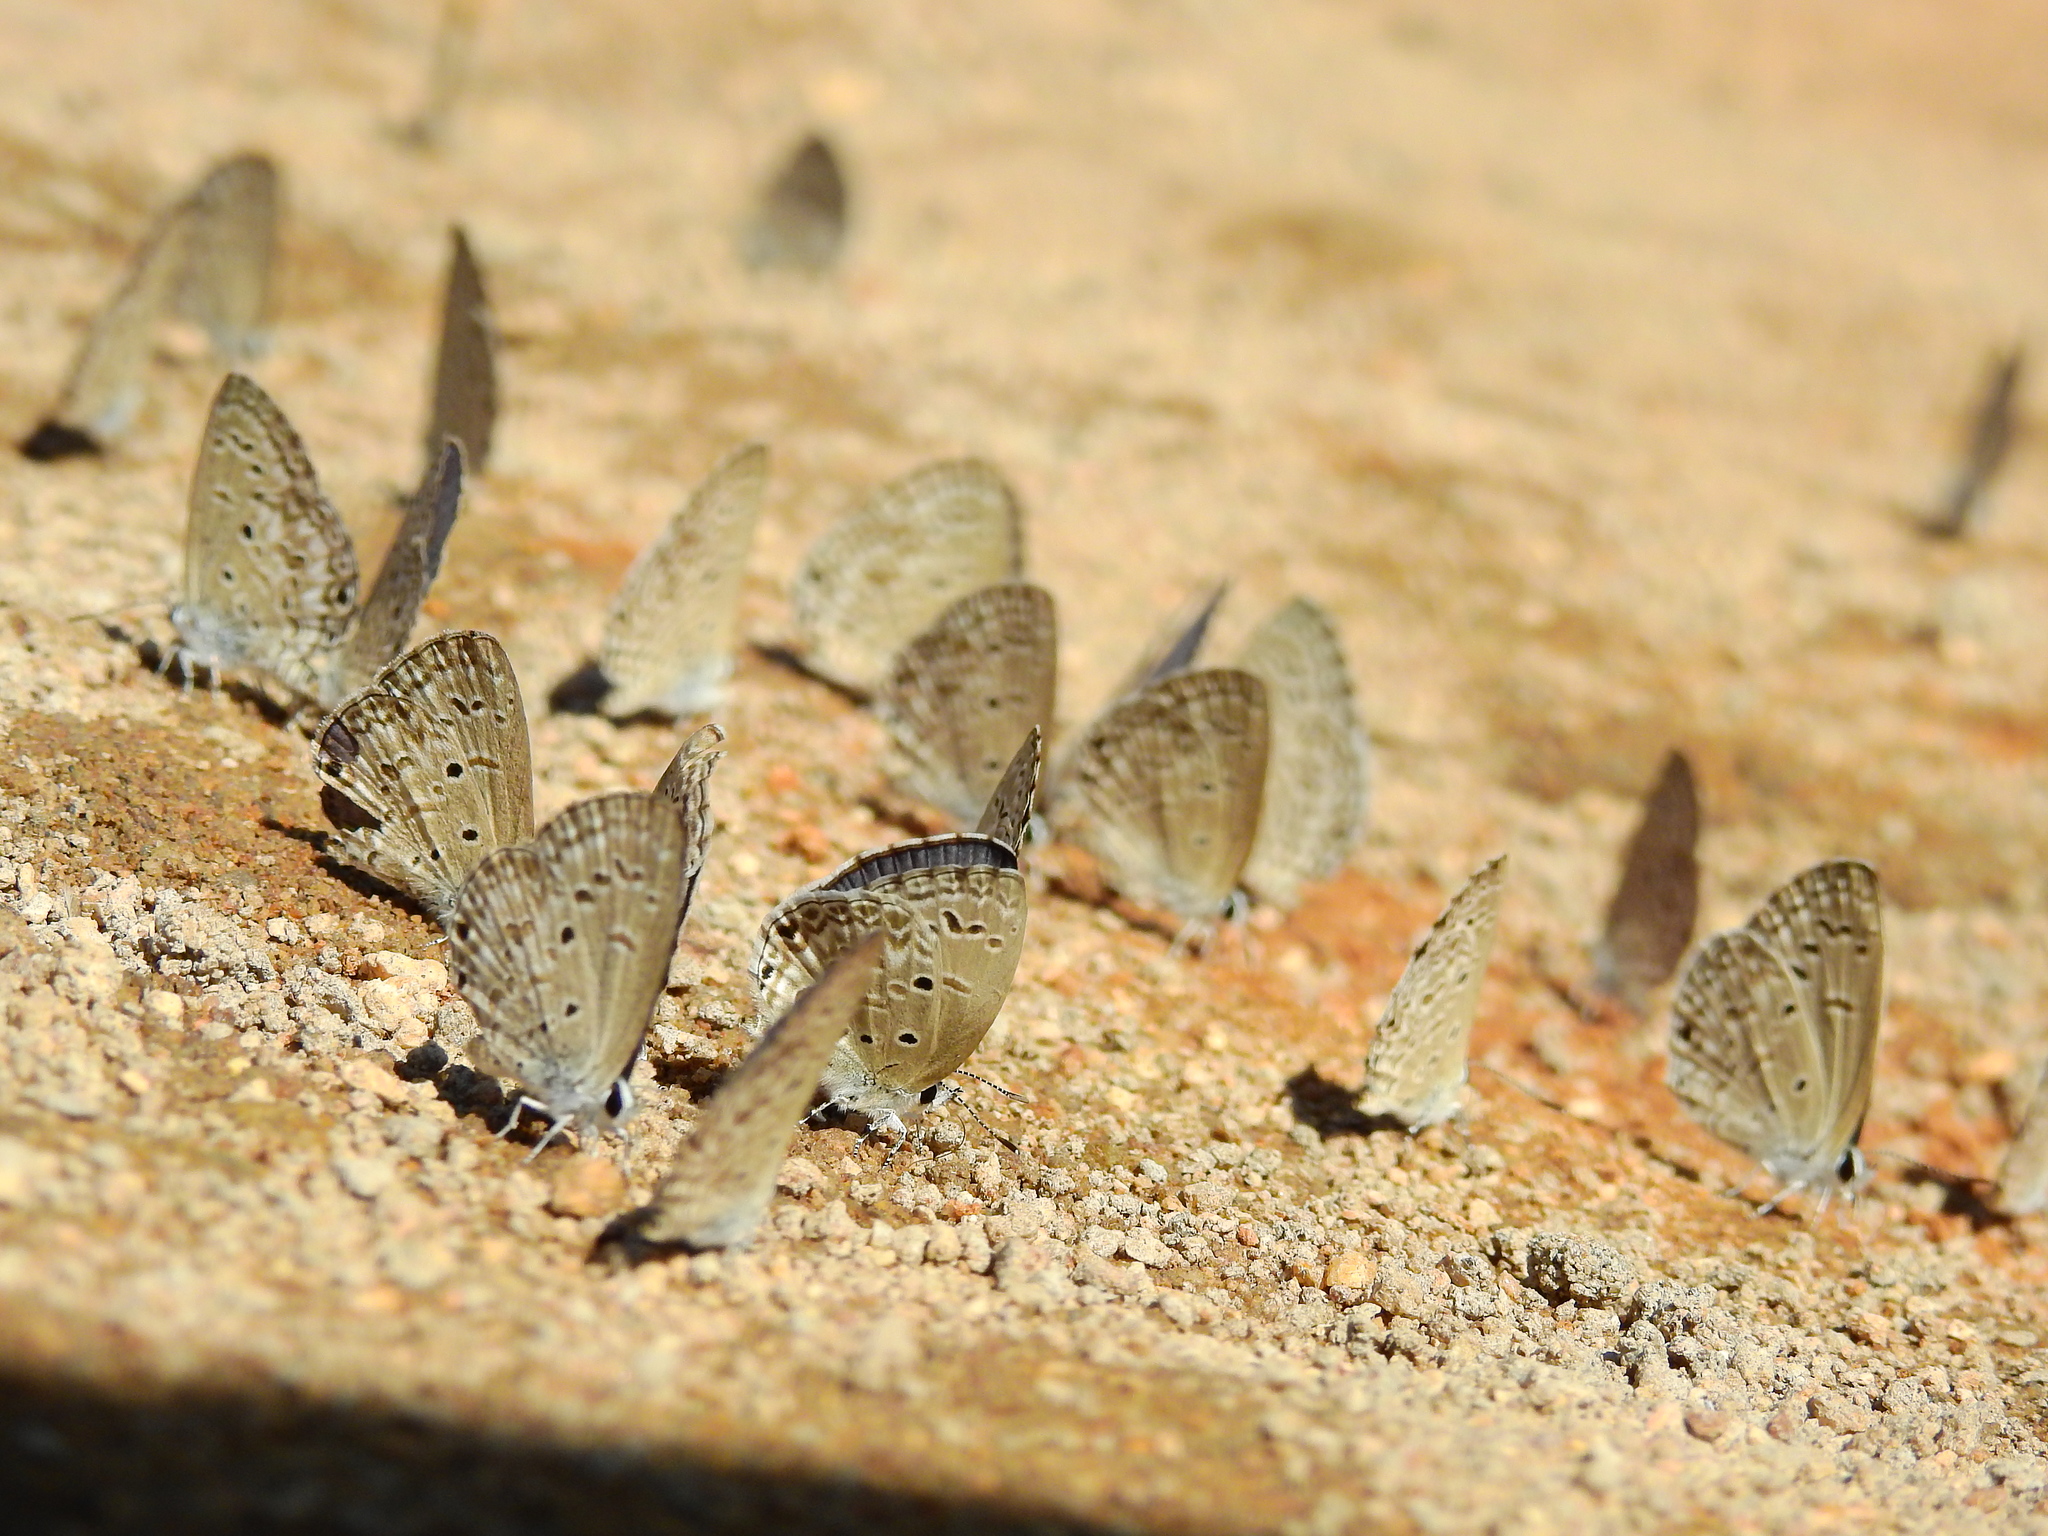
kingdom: Animalia
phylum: Arthropoda
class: Insecta
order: Lepidoptera
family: Lycaenidae
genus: Chilades
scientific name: Chilades laius
